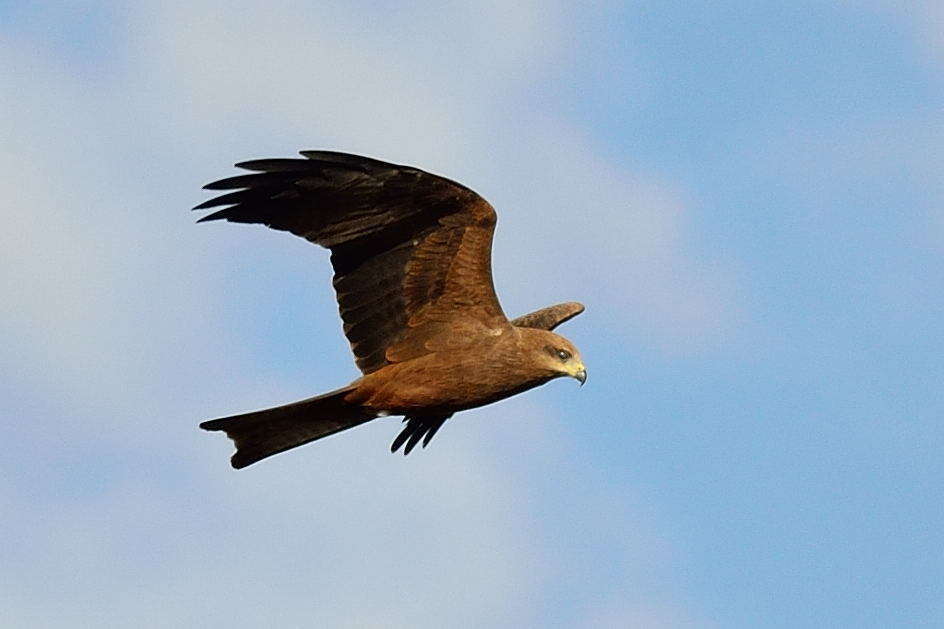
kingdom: Animalia
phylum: Chordata
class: Aves
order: Accipitriformes
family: Accipitridae
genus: Milvus
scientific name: Milvus migrans
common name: Black kite
